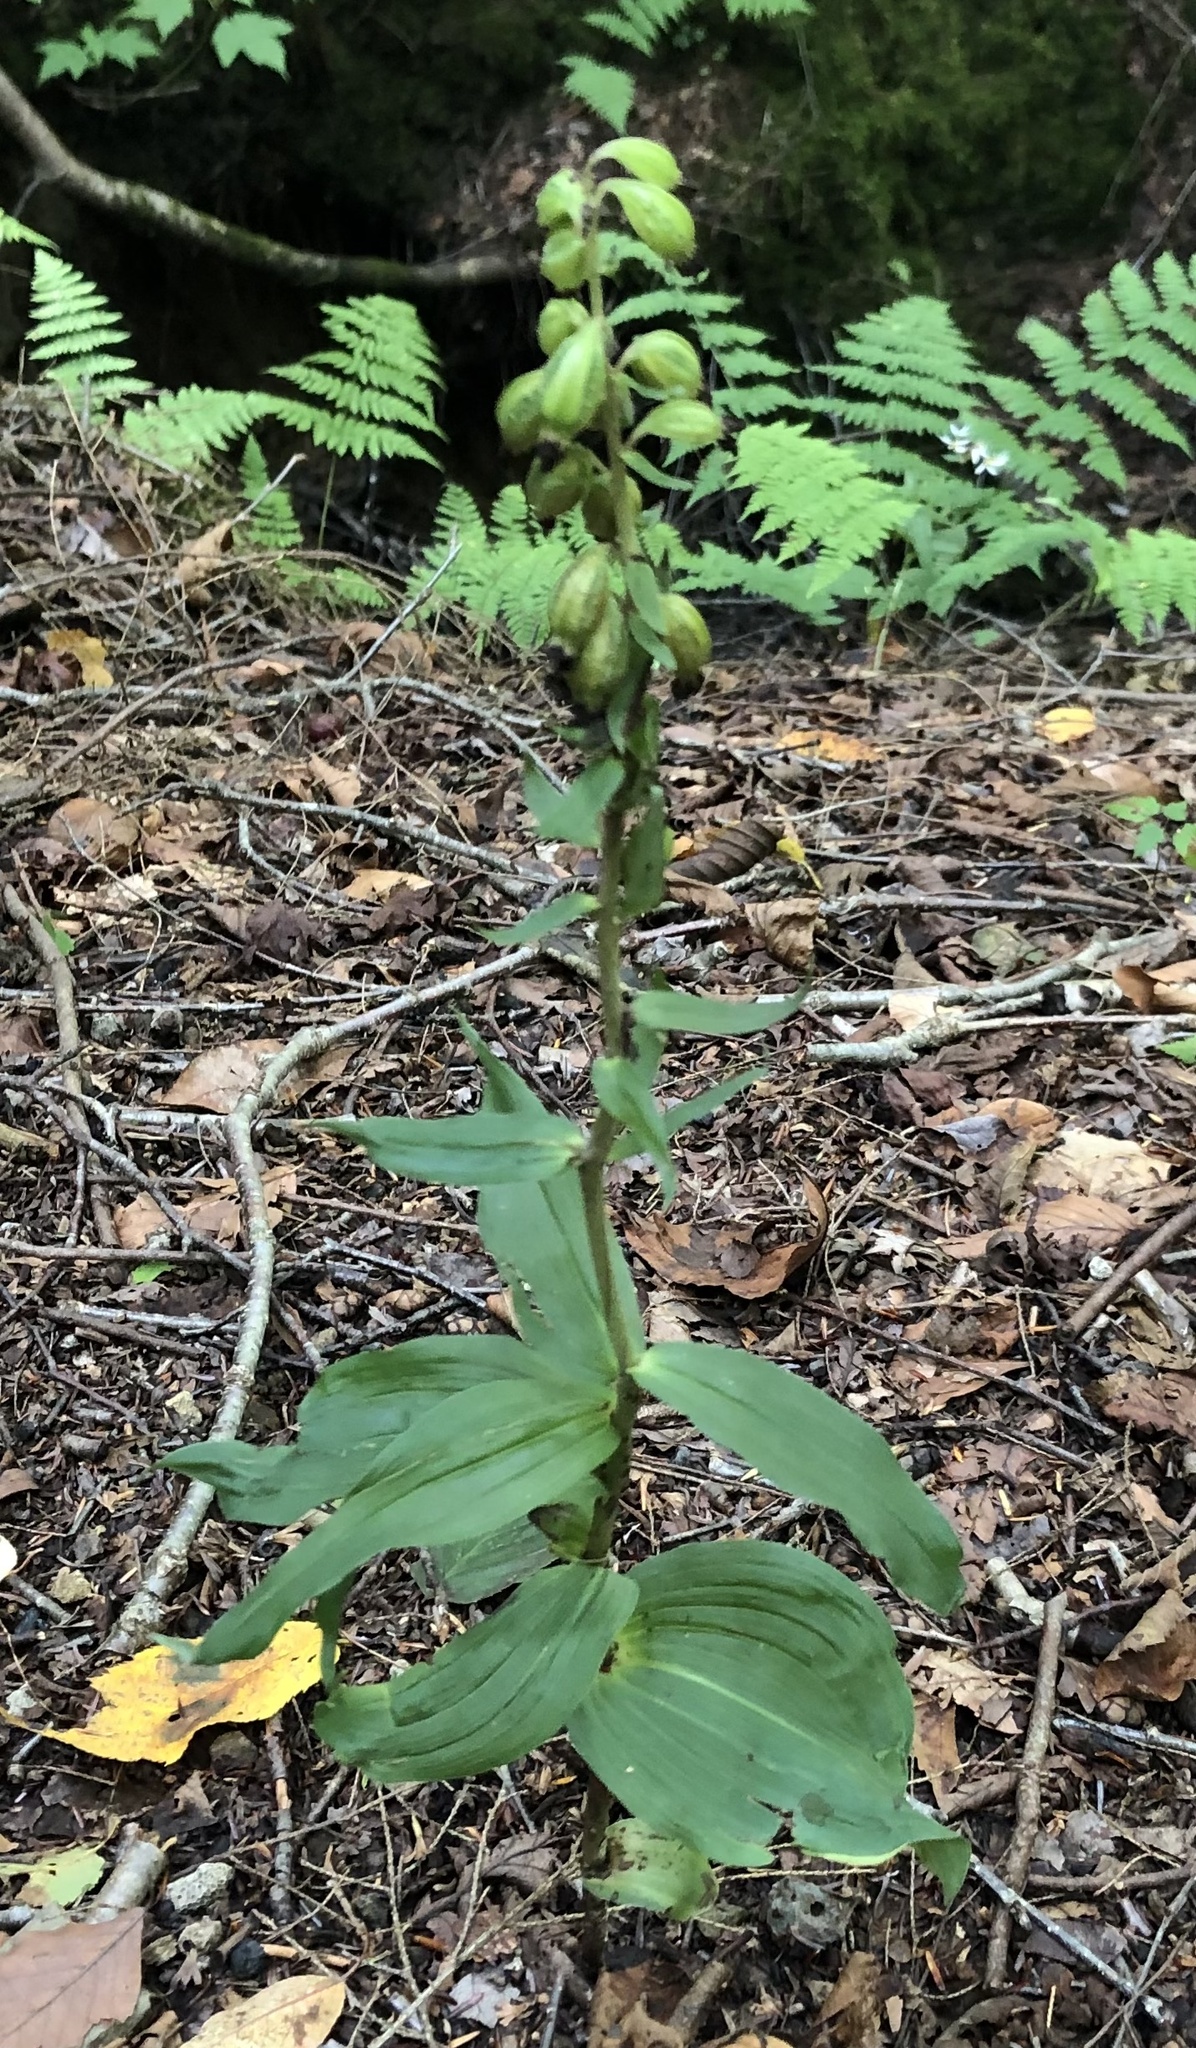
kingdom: Plantae
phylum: Tracheophyta
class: Liliopsida
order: Asparagales
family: Orchidaceae
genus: Epipactis
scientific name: Epipactis helleborine
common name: Broad-leaved helleborine
